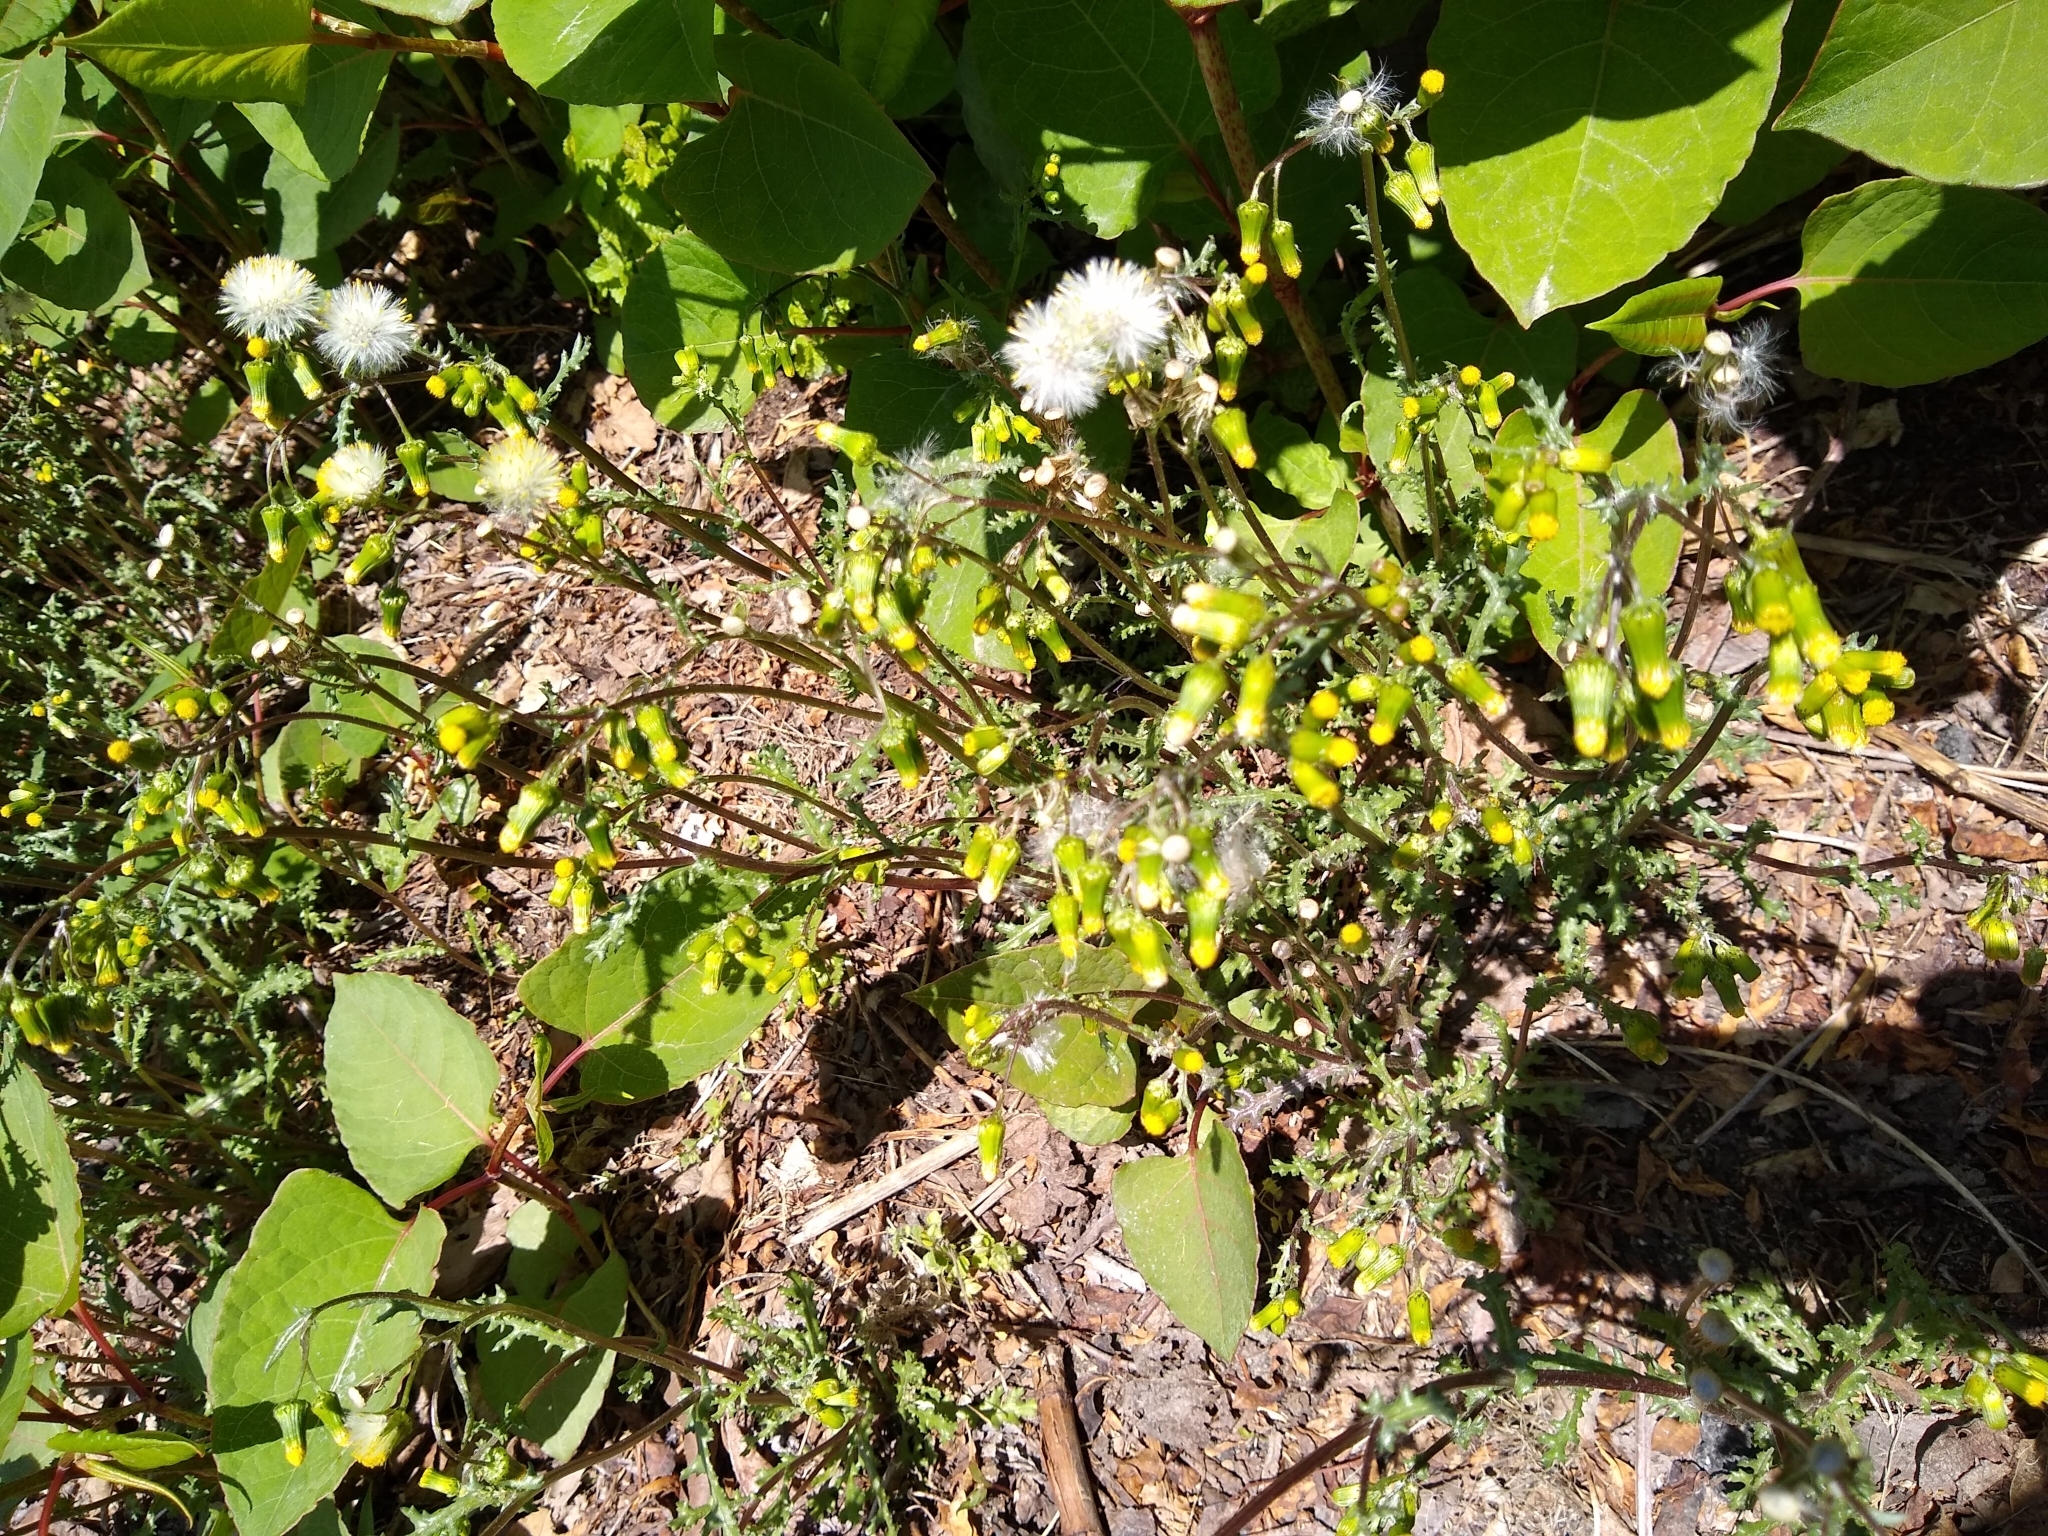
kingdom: Plantae
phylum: Tracheophyta
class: Magnoliopsida
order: Asterales
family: Asteraceae
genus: Senecio
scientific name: Senecio vulgaris
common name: Old-man-in-the-spring
